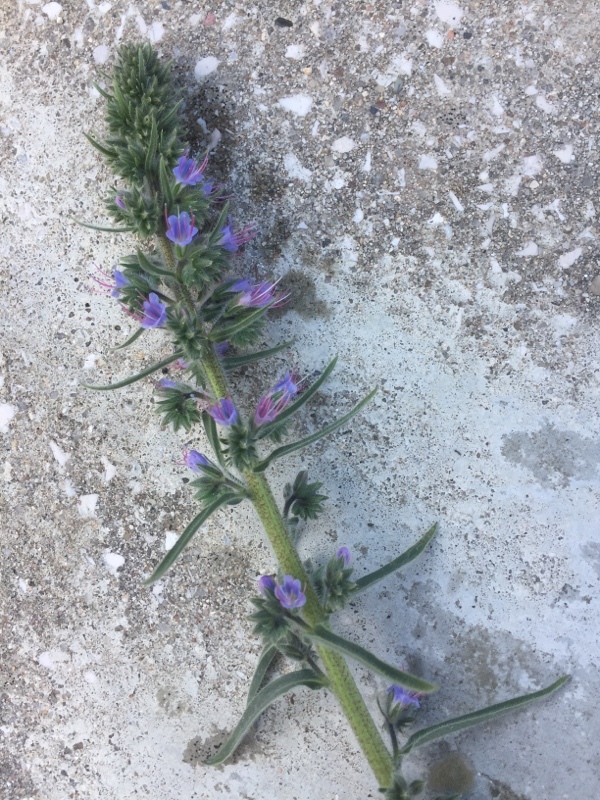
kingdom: Plantae
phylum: Tracheophyta
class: Magnoliopsida
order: Boraginales
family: Boraginaceae
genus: Echium
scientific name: Echium lusitanicum
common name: Violet-vein viper's bugloss
